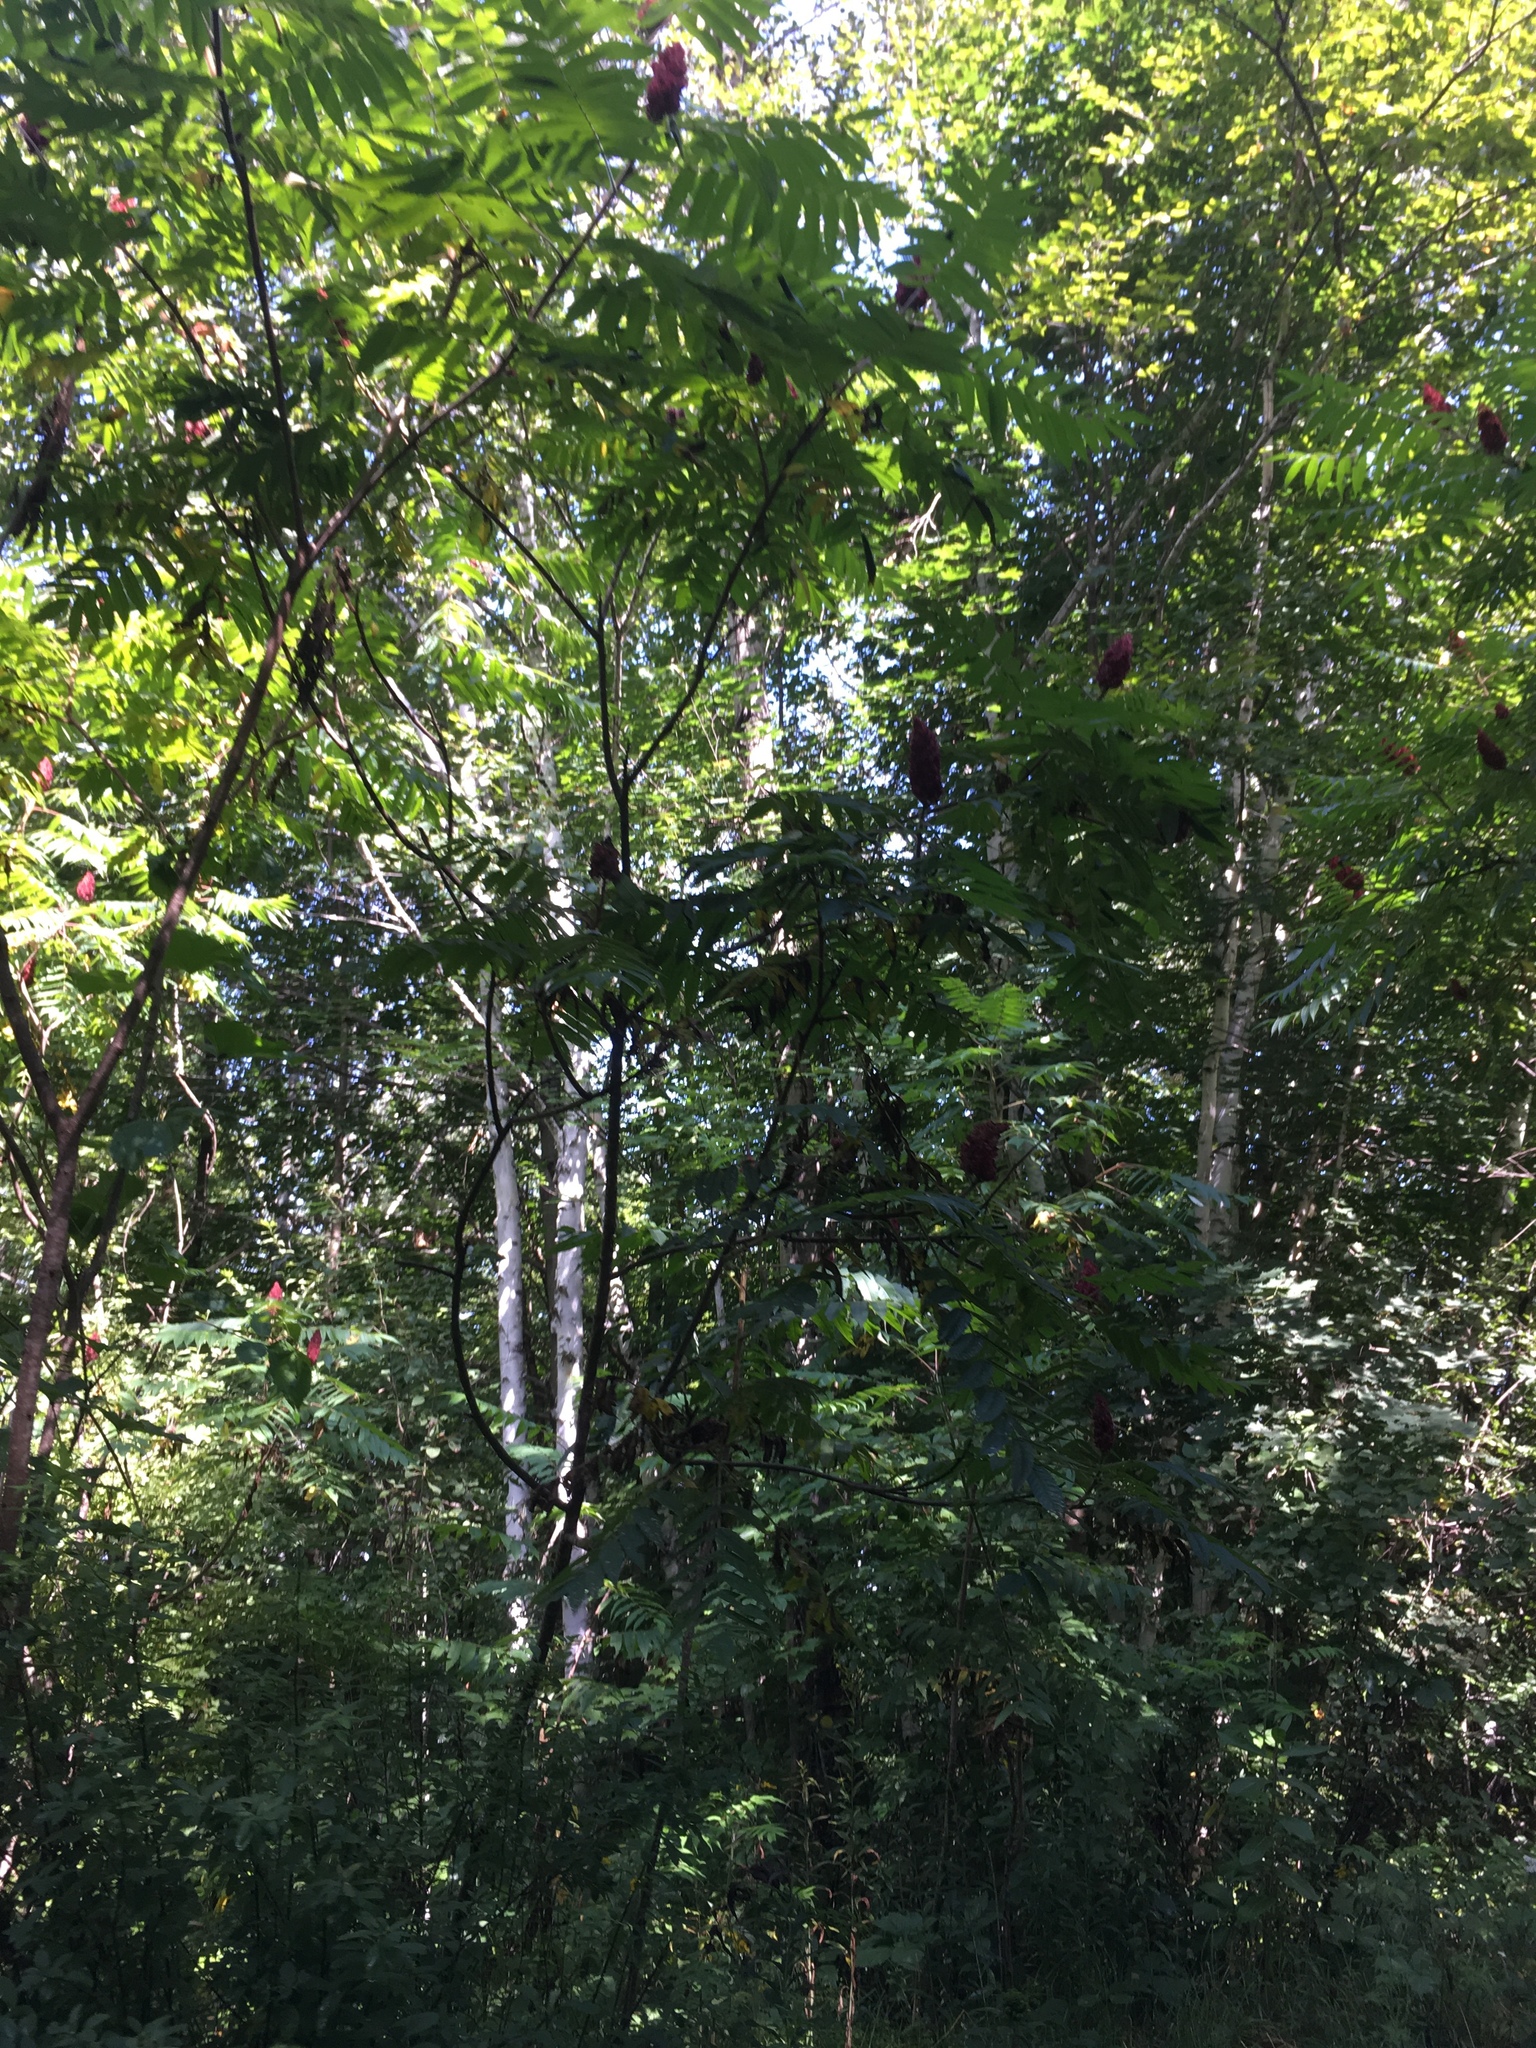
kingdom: Plantae
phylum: Tracheophyta
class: Magnoliopsida
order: Sapindales
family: Anacardiaceae
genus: Rhus
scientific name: Rhus typhina
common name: Staghorn sumac
